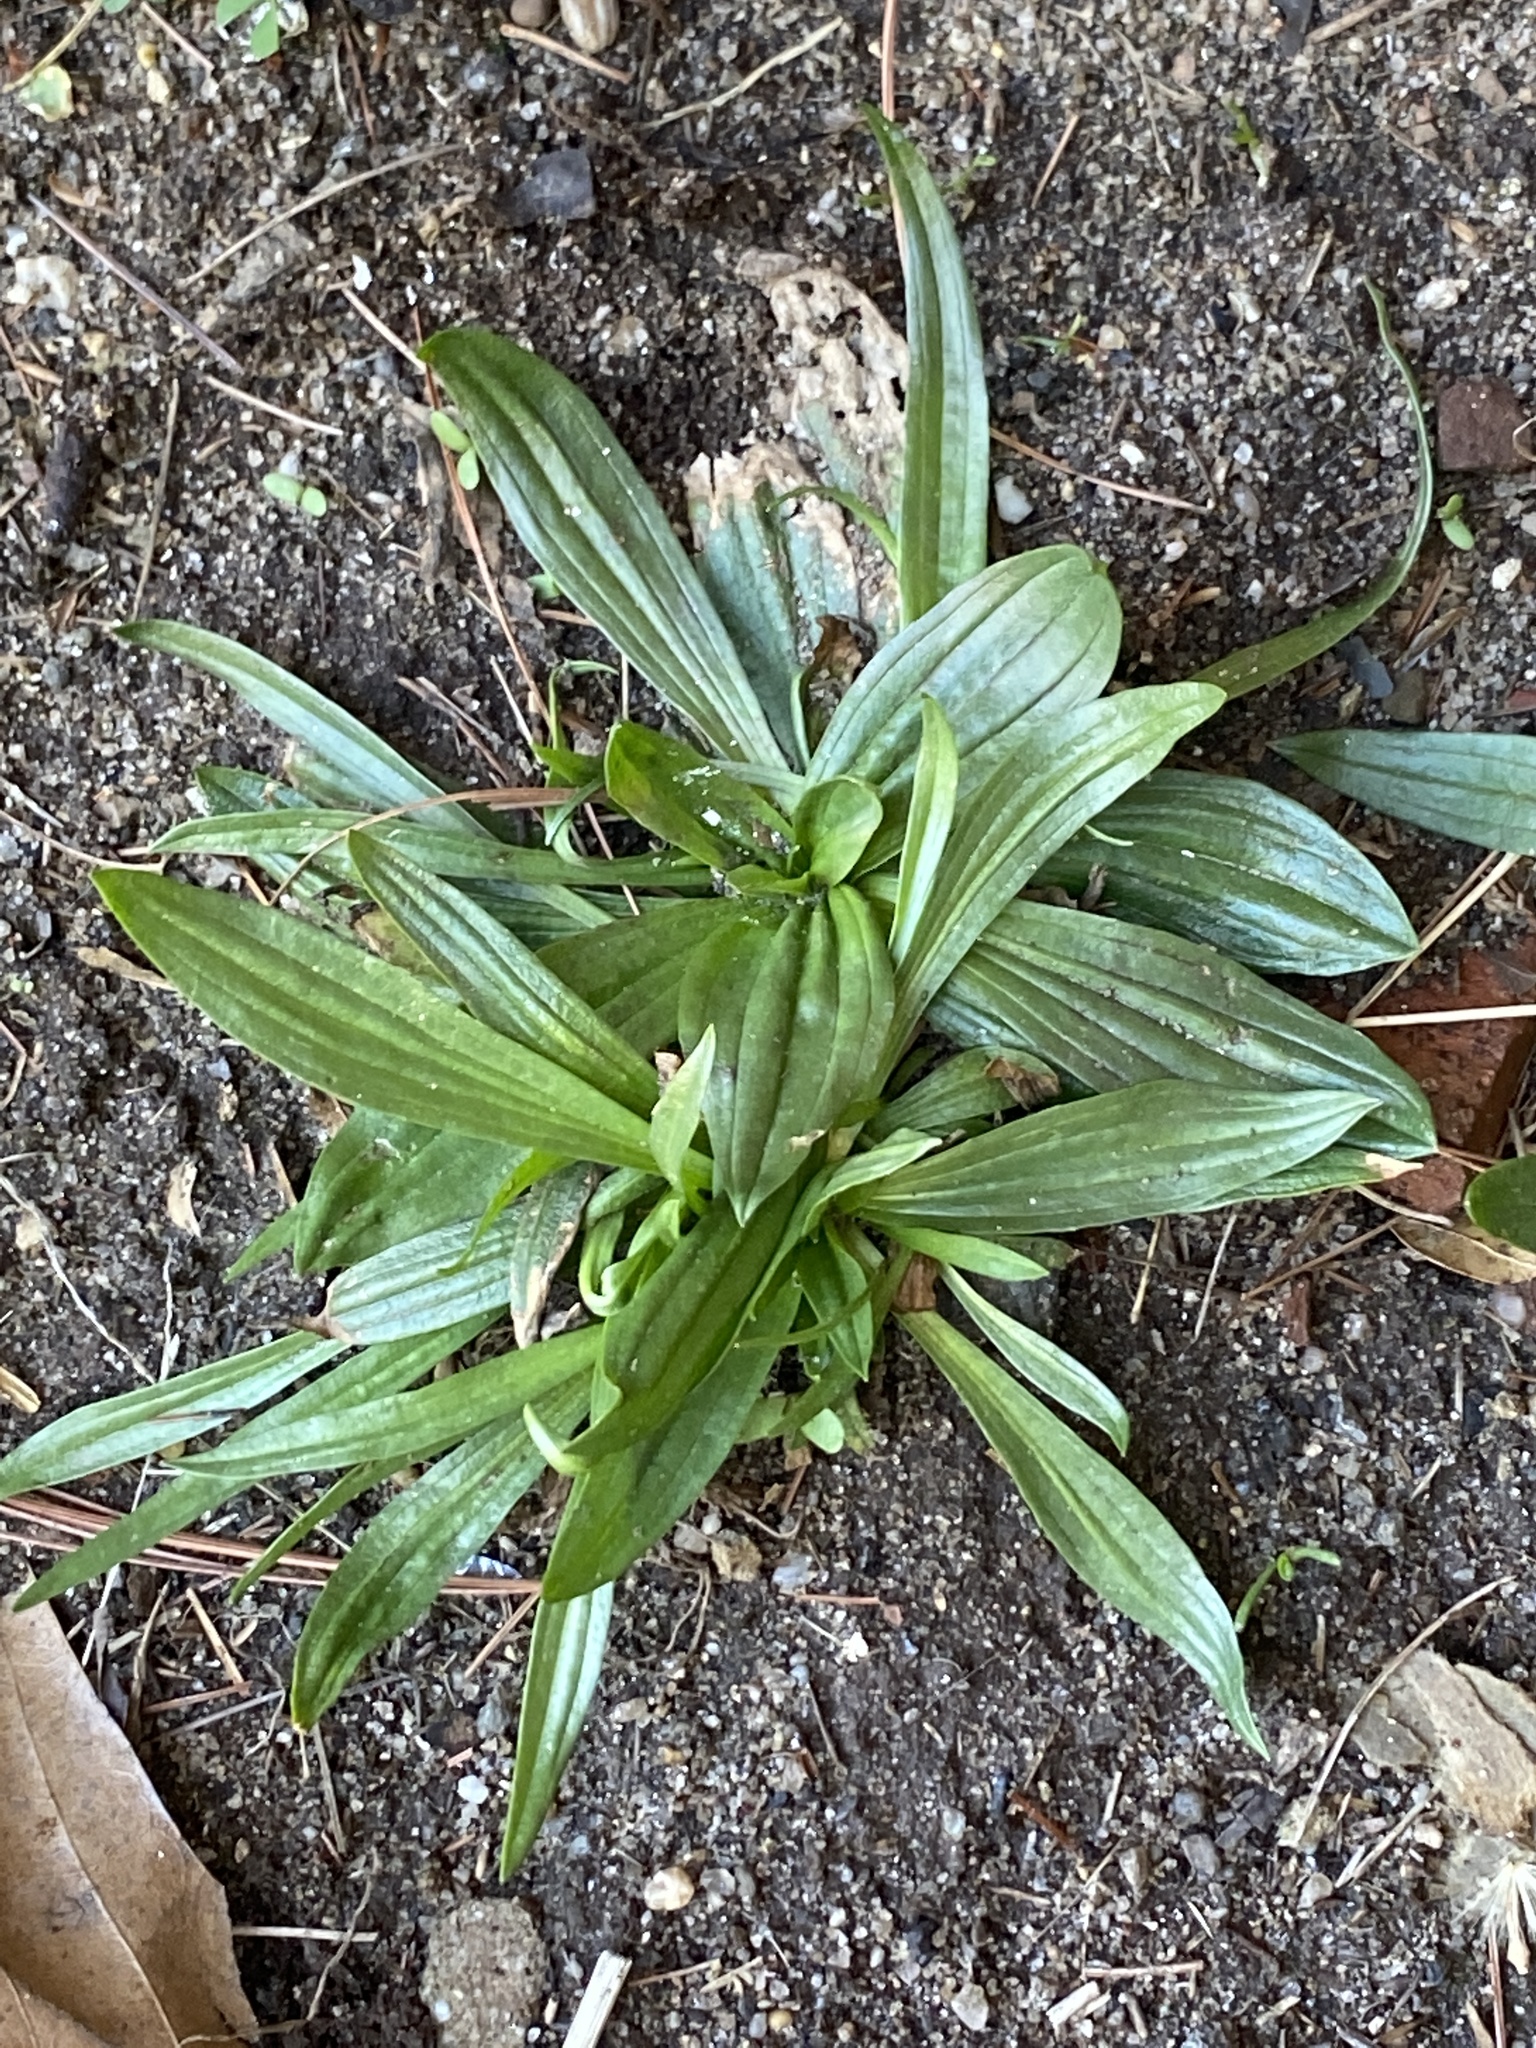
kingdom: Plantae
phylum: Tracheophyta
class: Magnoliopsida
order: Lamiales
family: Plantaginaceae
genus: Plantago
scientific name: Plantago lanceolata
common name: Ribwort plantain
